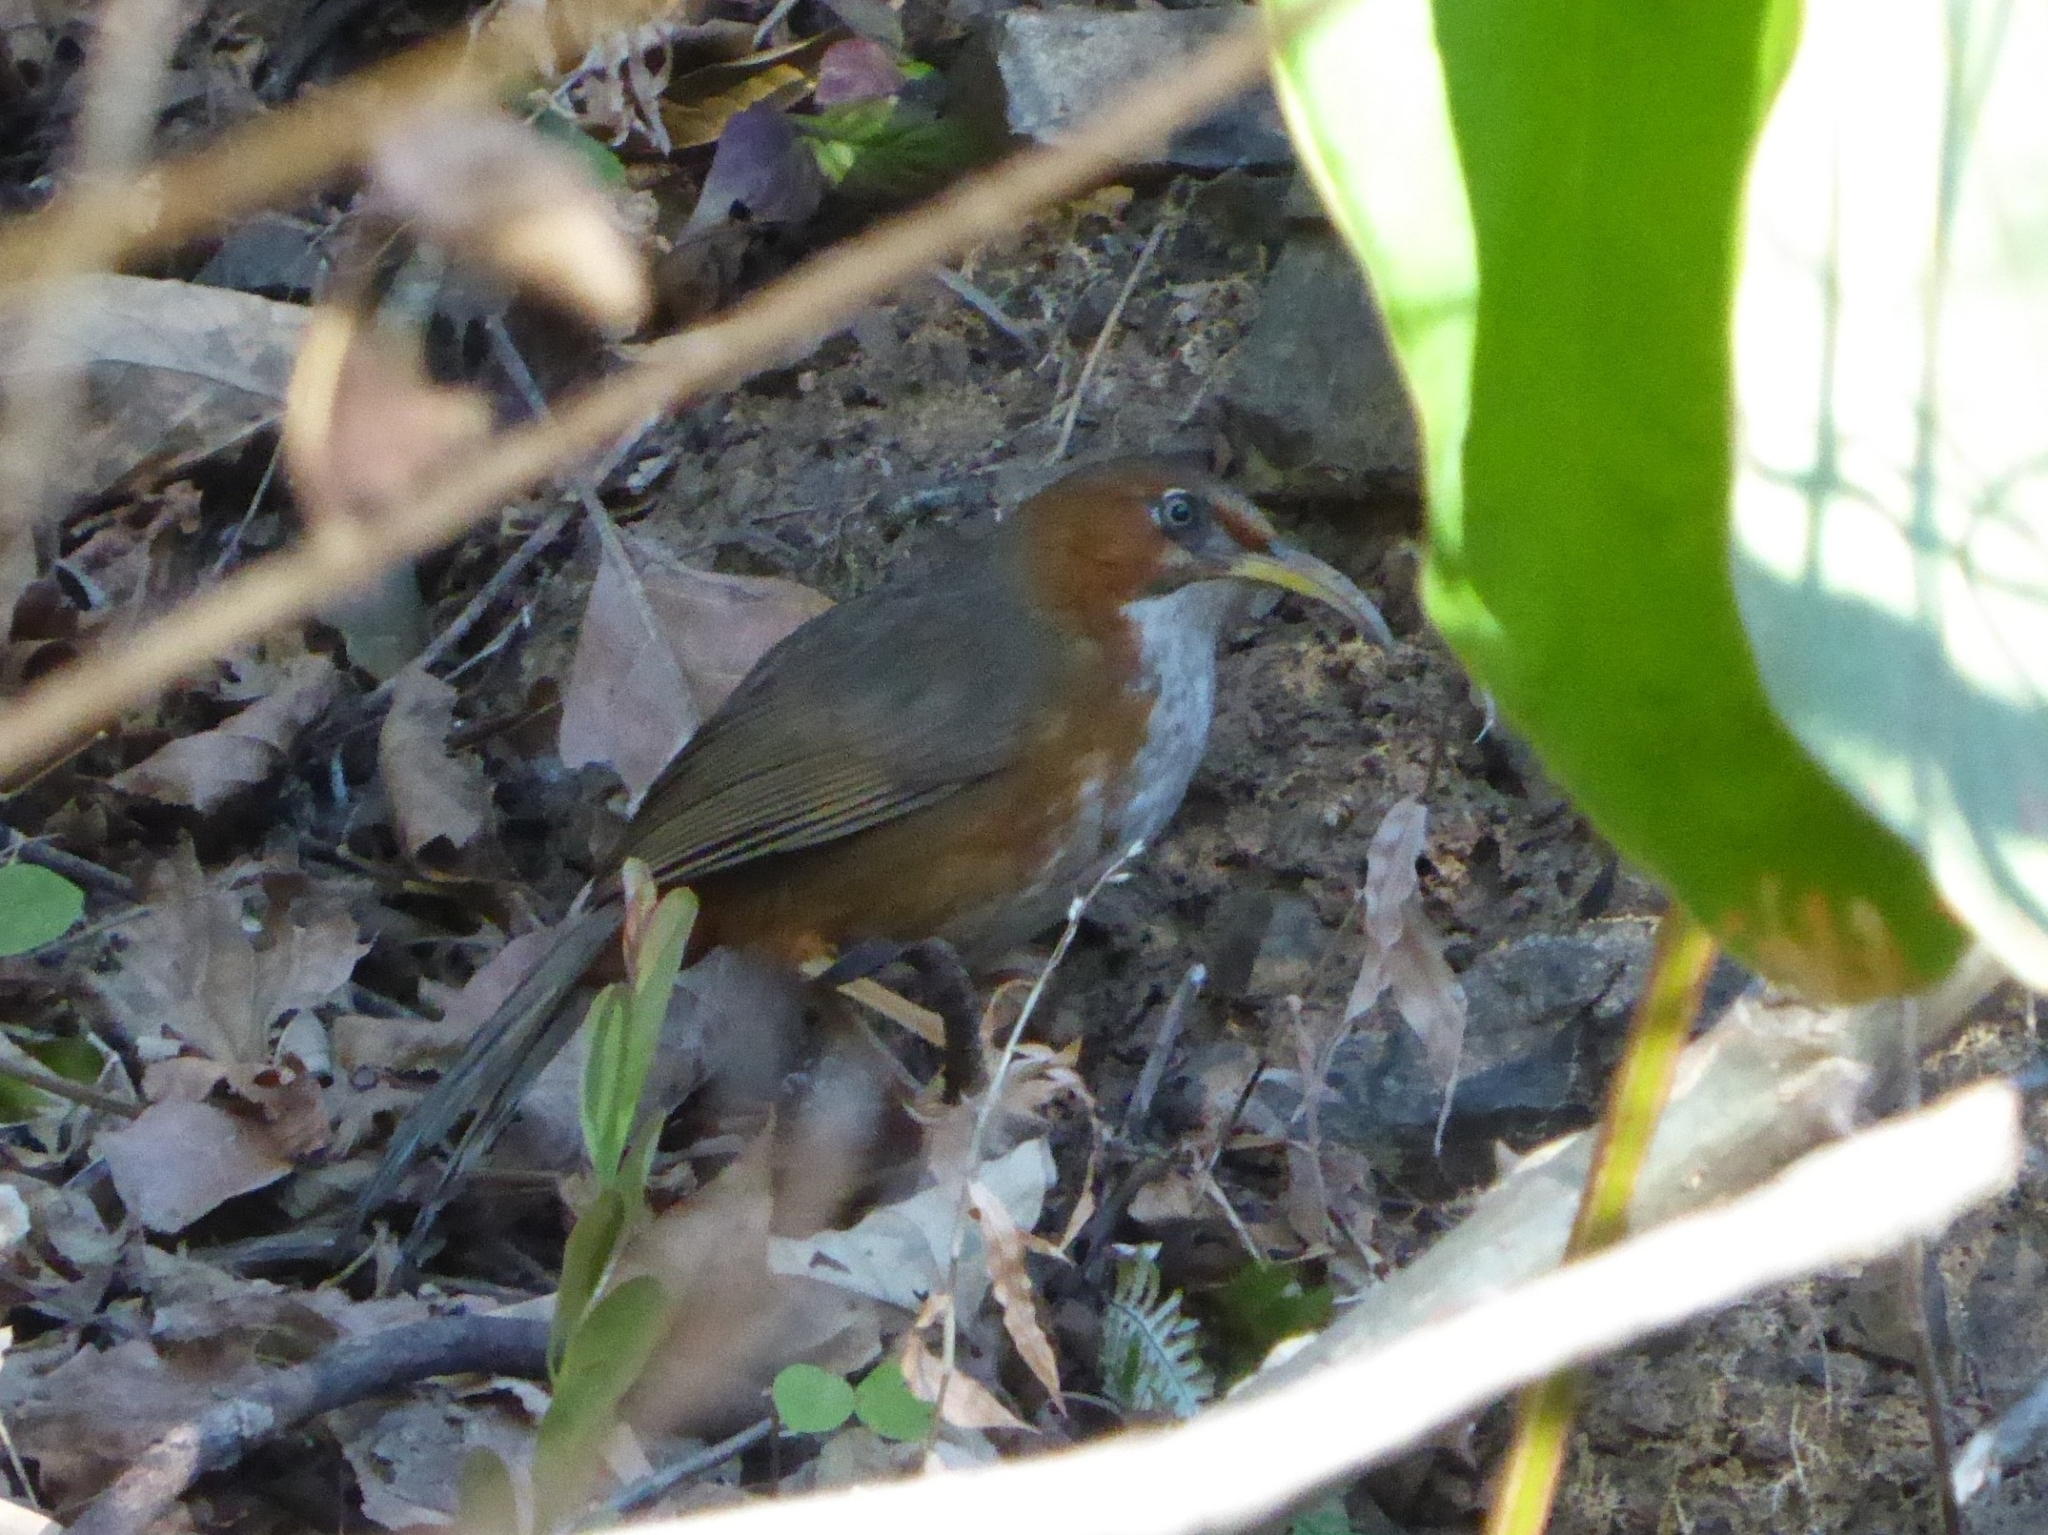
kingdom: Animalia
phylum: Chordata
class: Aves
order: Passeriformes
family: Timaliidae
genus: Pomatorhinus
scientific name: Pomatorhinus erythrogenys
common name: Rusty-cheeked scimitar babbler
